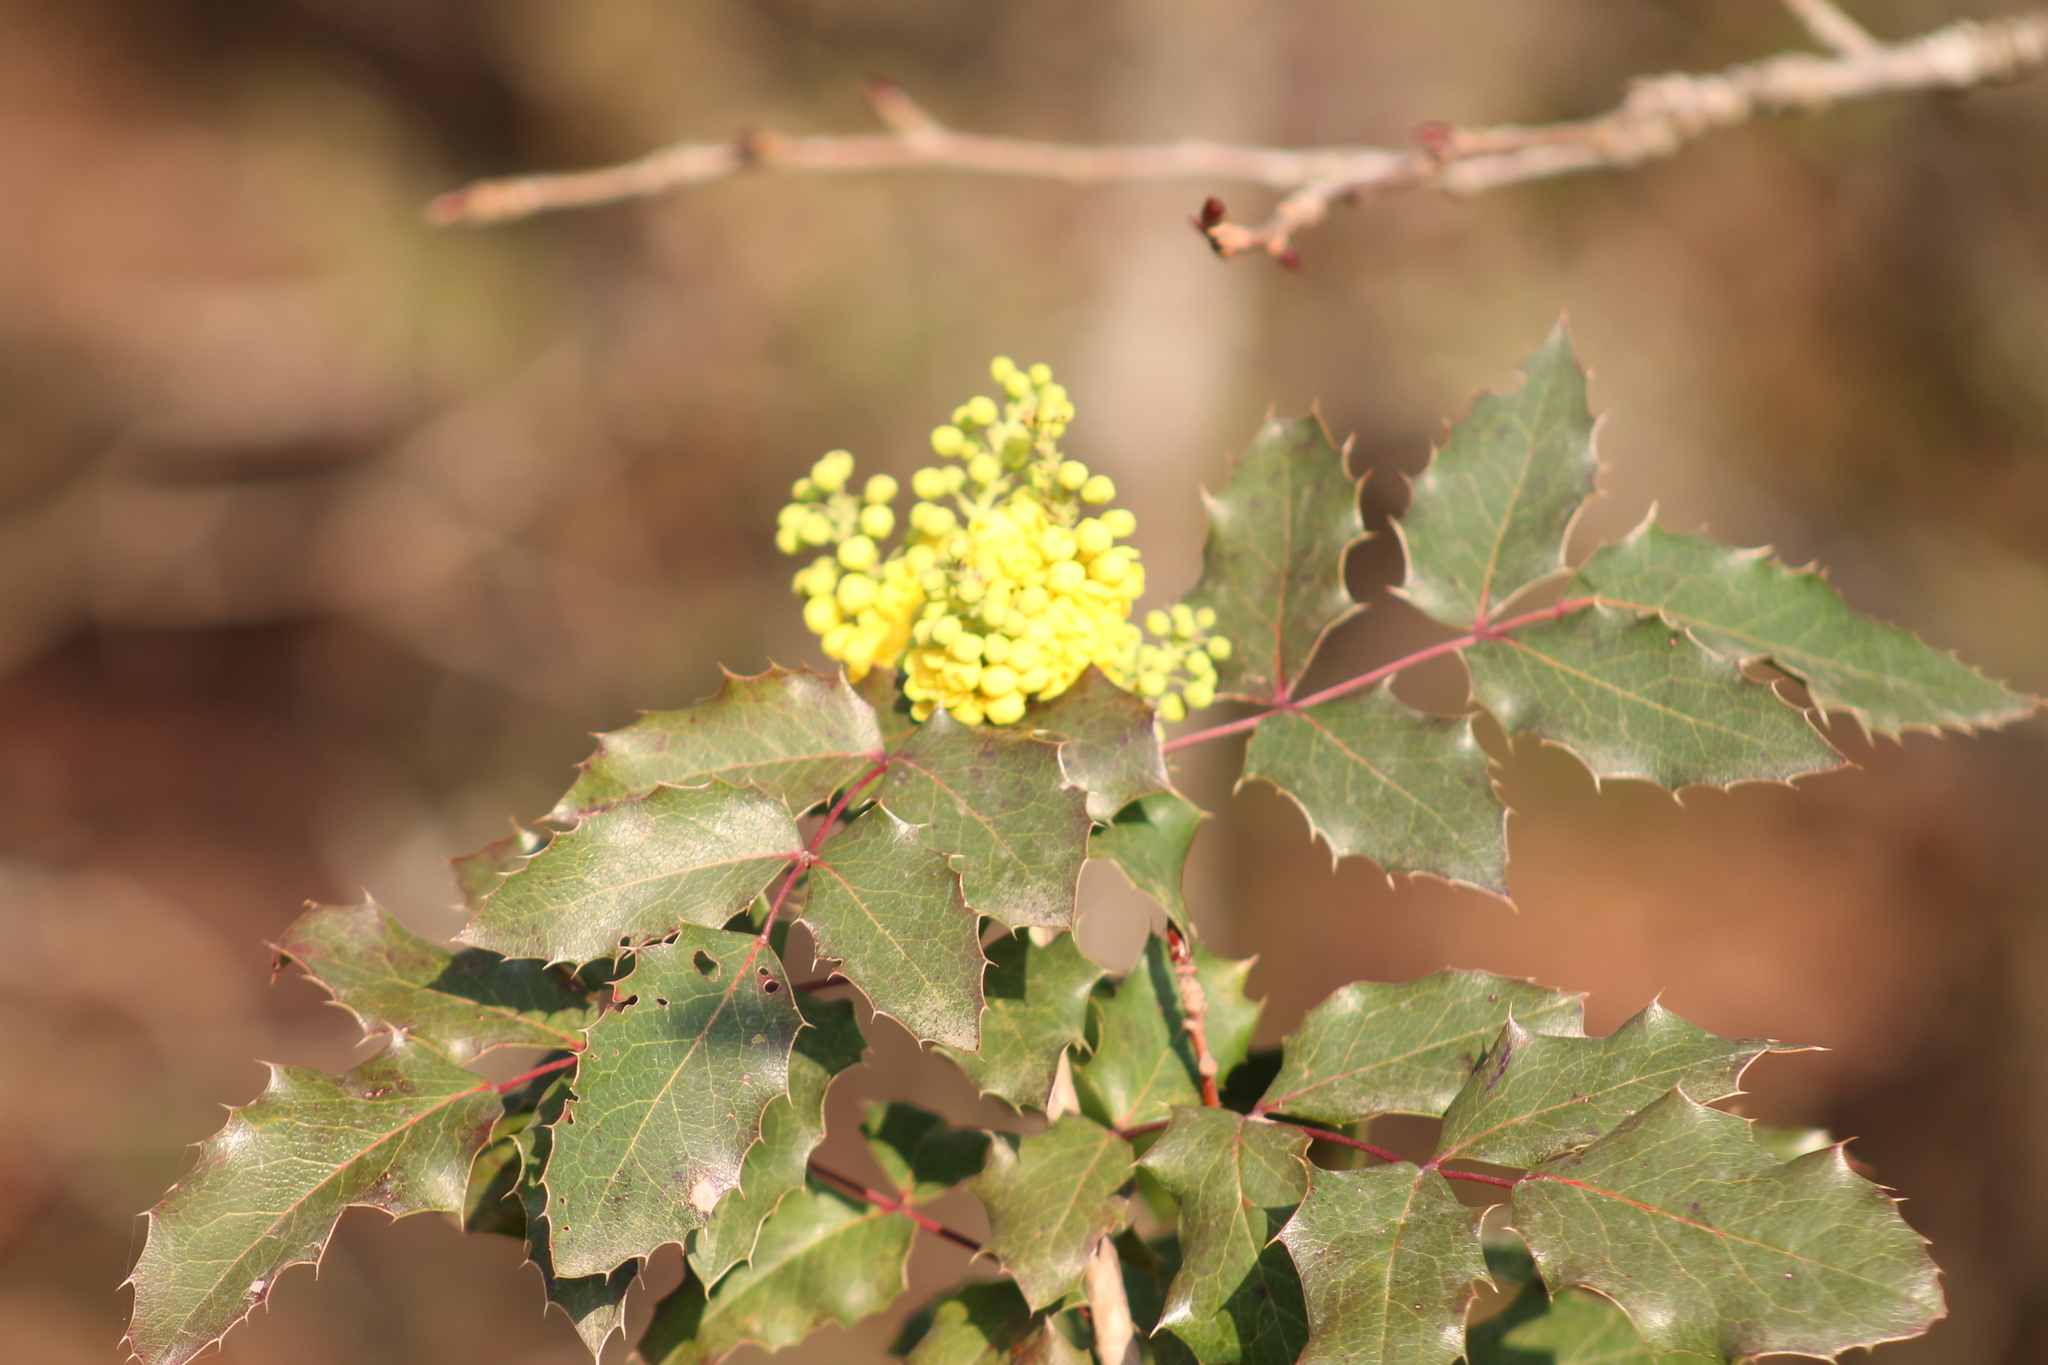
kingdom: Plantae
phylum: Tracheophyta
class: Magnoliopsida
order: Ranunculales
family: Berberidaceae
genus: Mahonia
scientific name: Mahonia aquifolium
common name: Oregon-grape
